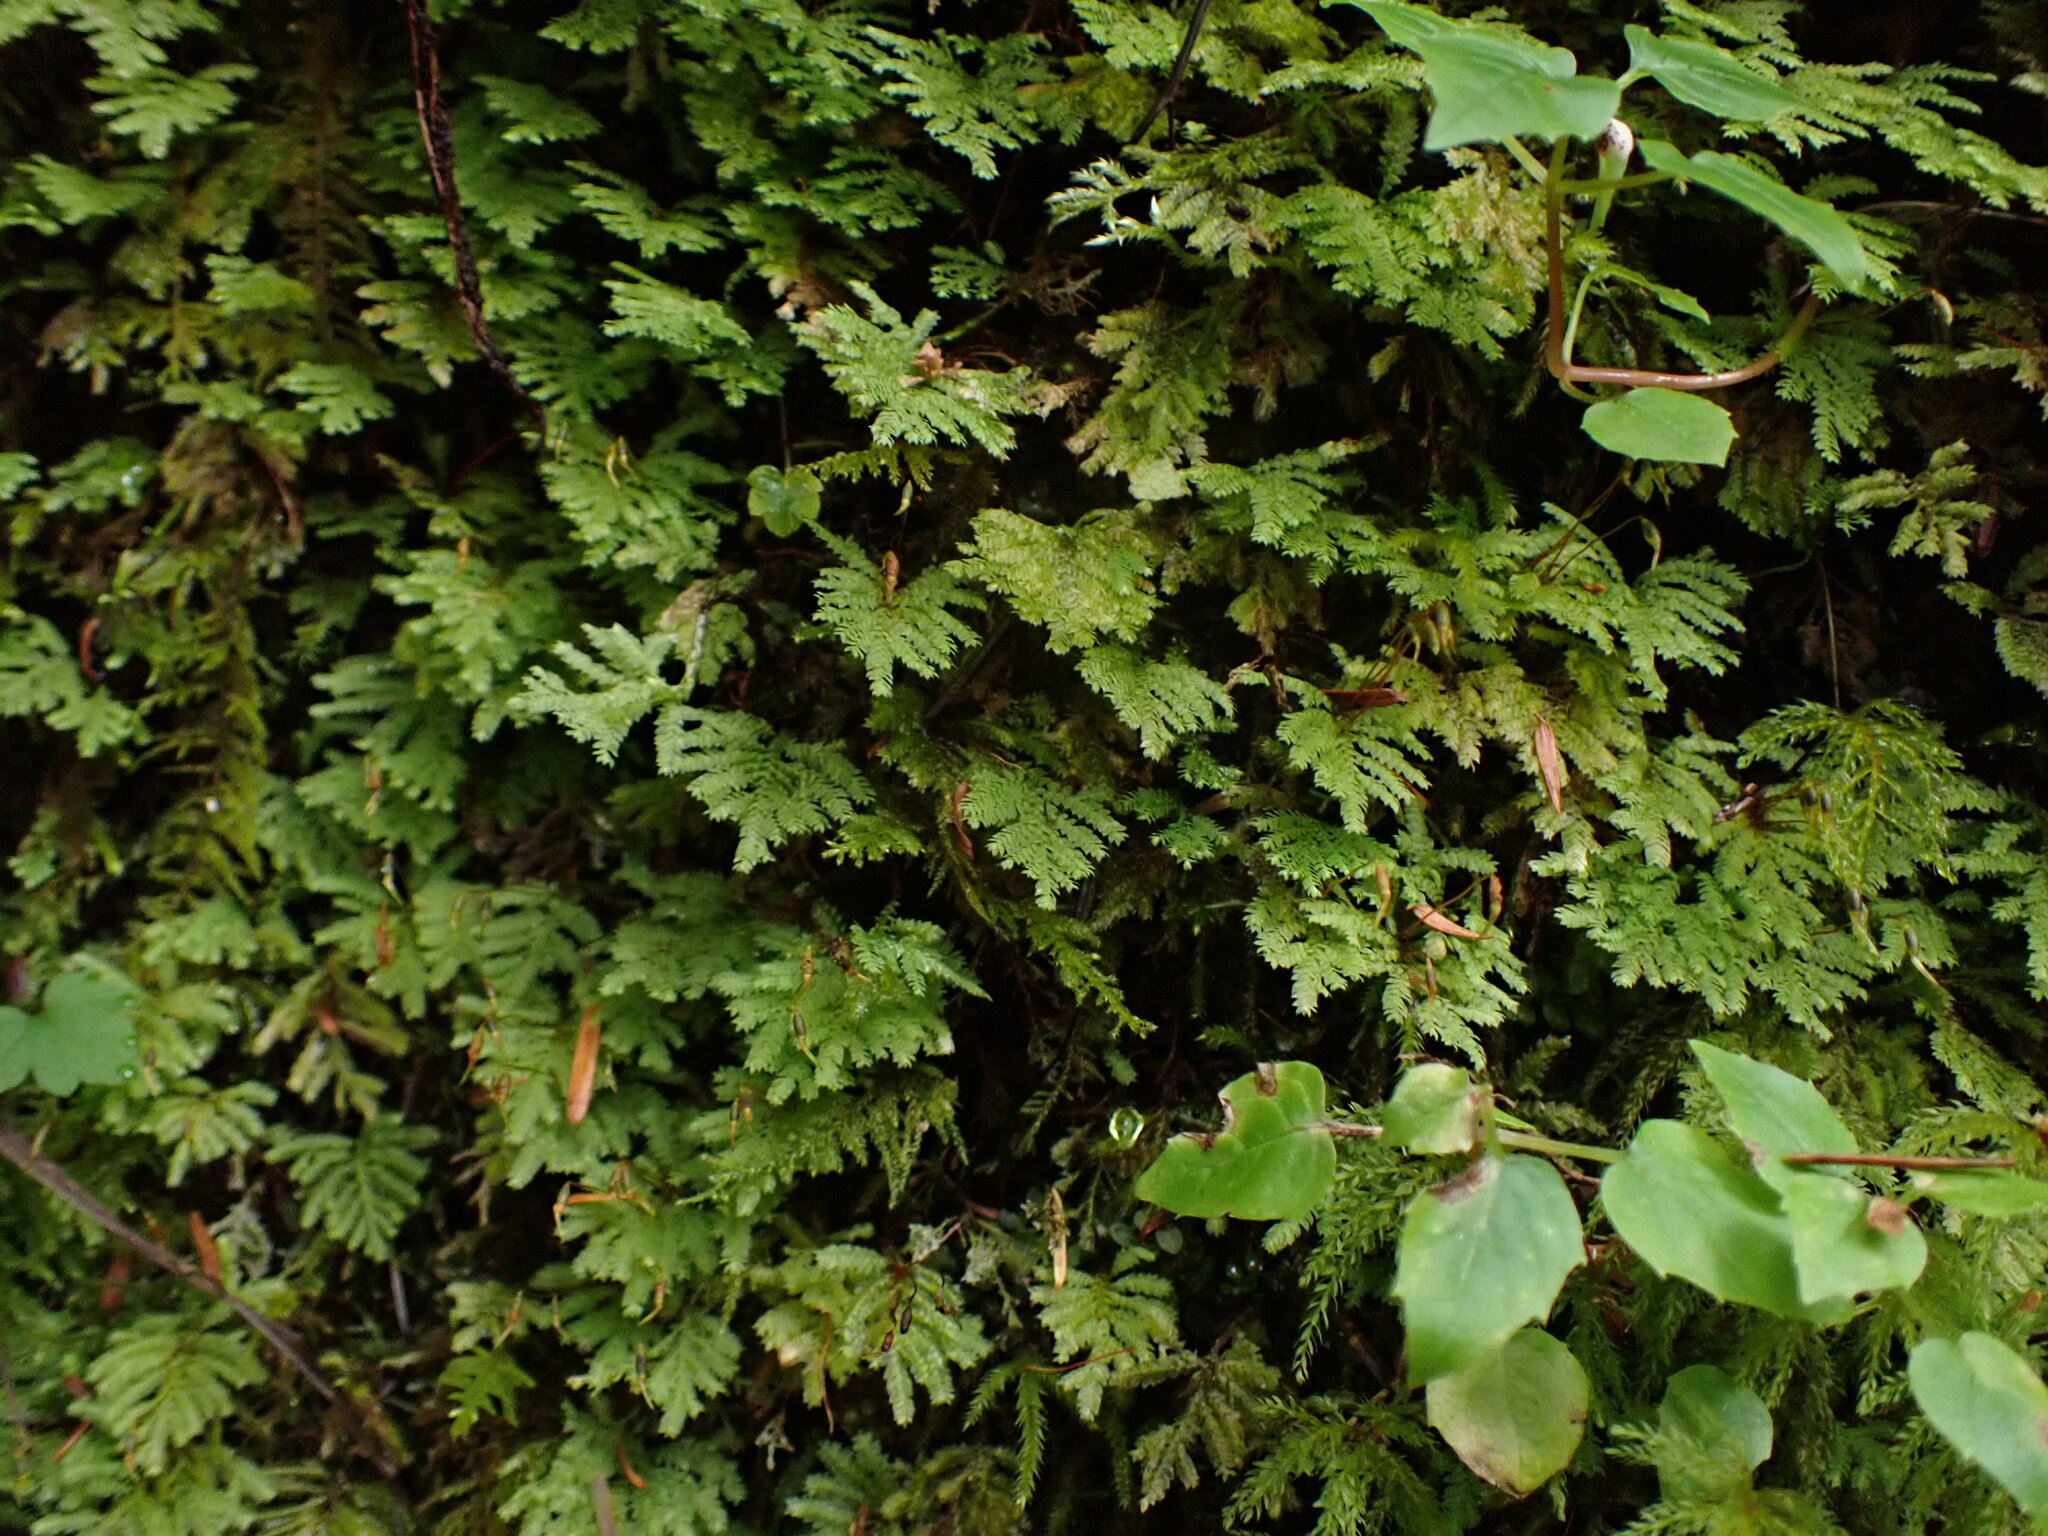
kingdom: Plantae
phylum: Bryophyta
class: Bryopsida
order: Hypopterygiales
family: Hypopterygiaceae
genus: Hypopterygium
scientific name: Hypopterygium flavolimbatum
